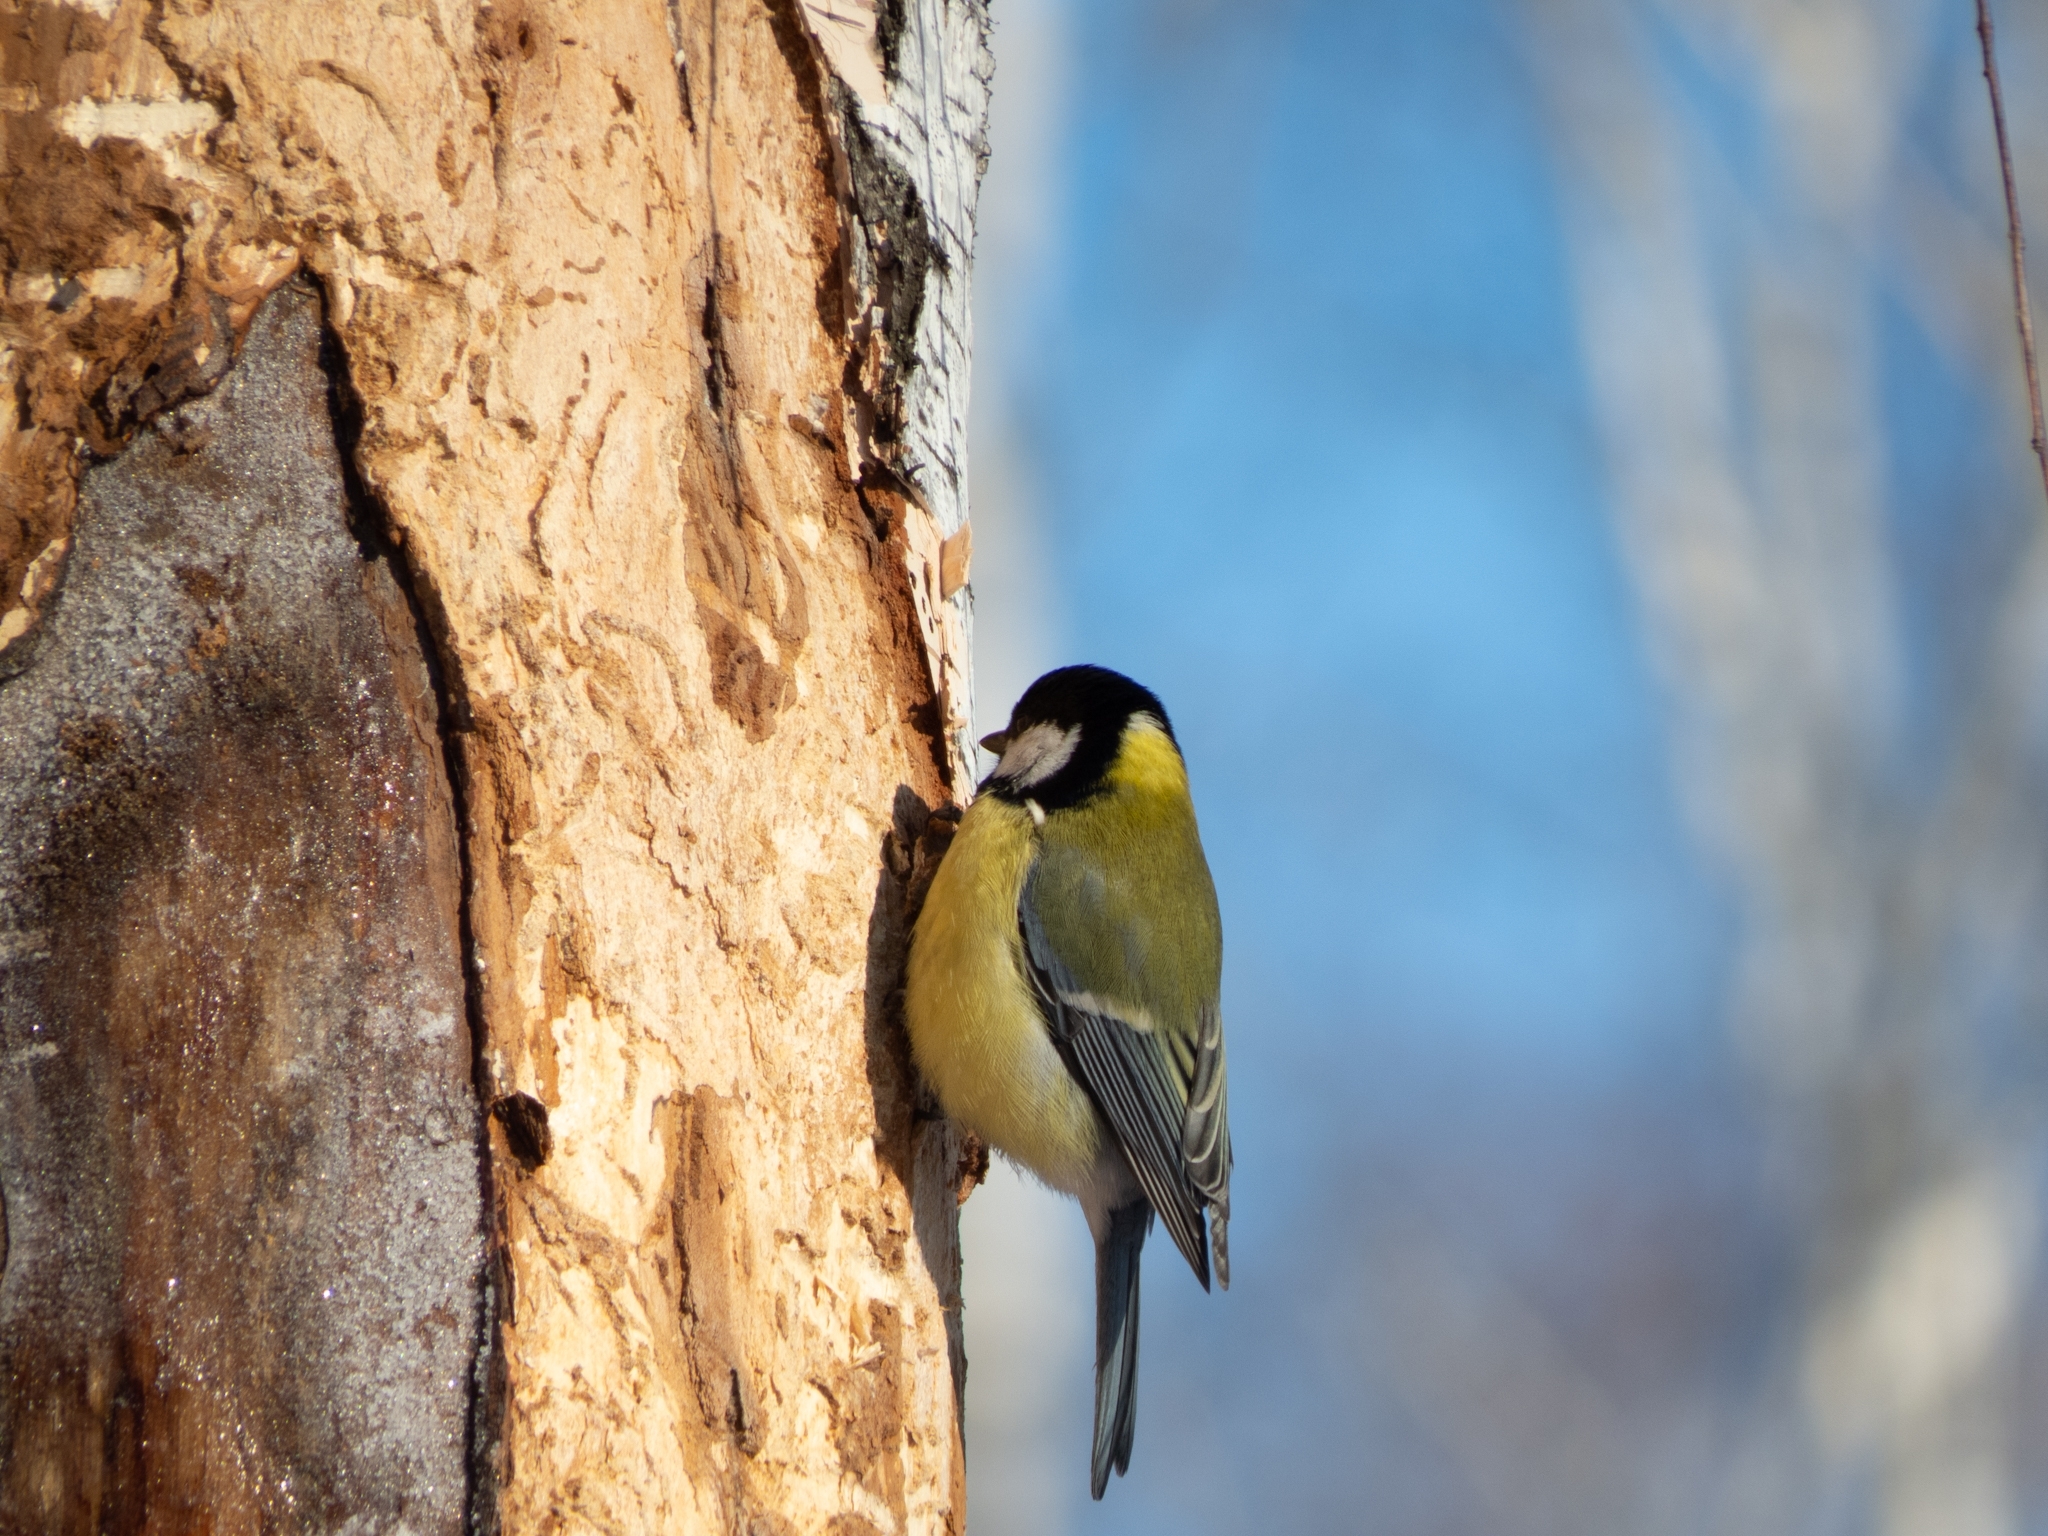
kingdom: Animalia
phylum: Chordata
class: Aves
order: Passeriformes
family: Paridae
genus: Parus
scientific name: Parus major
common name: Great tit
